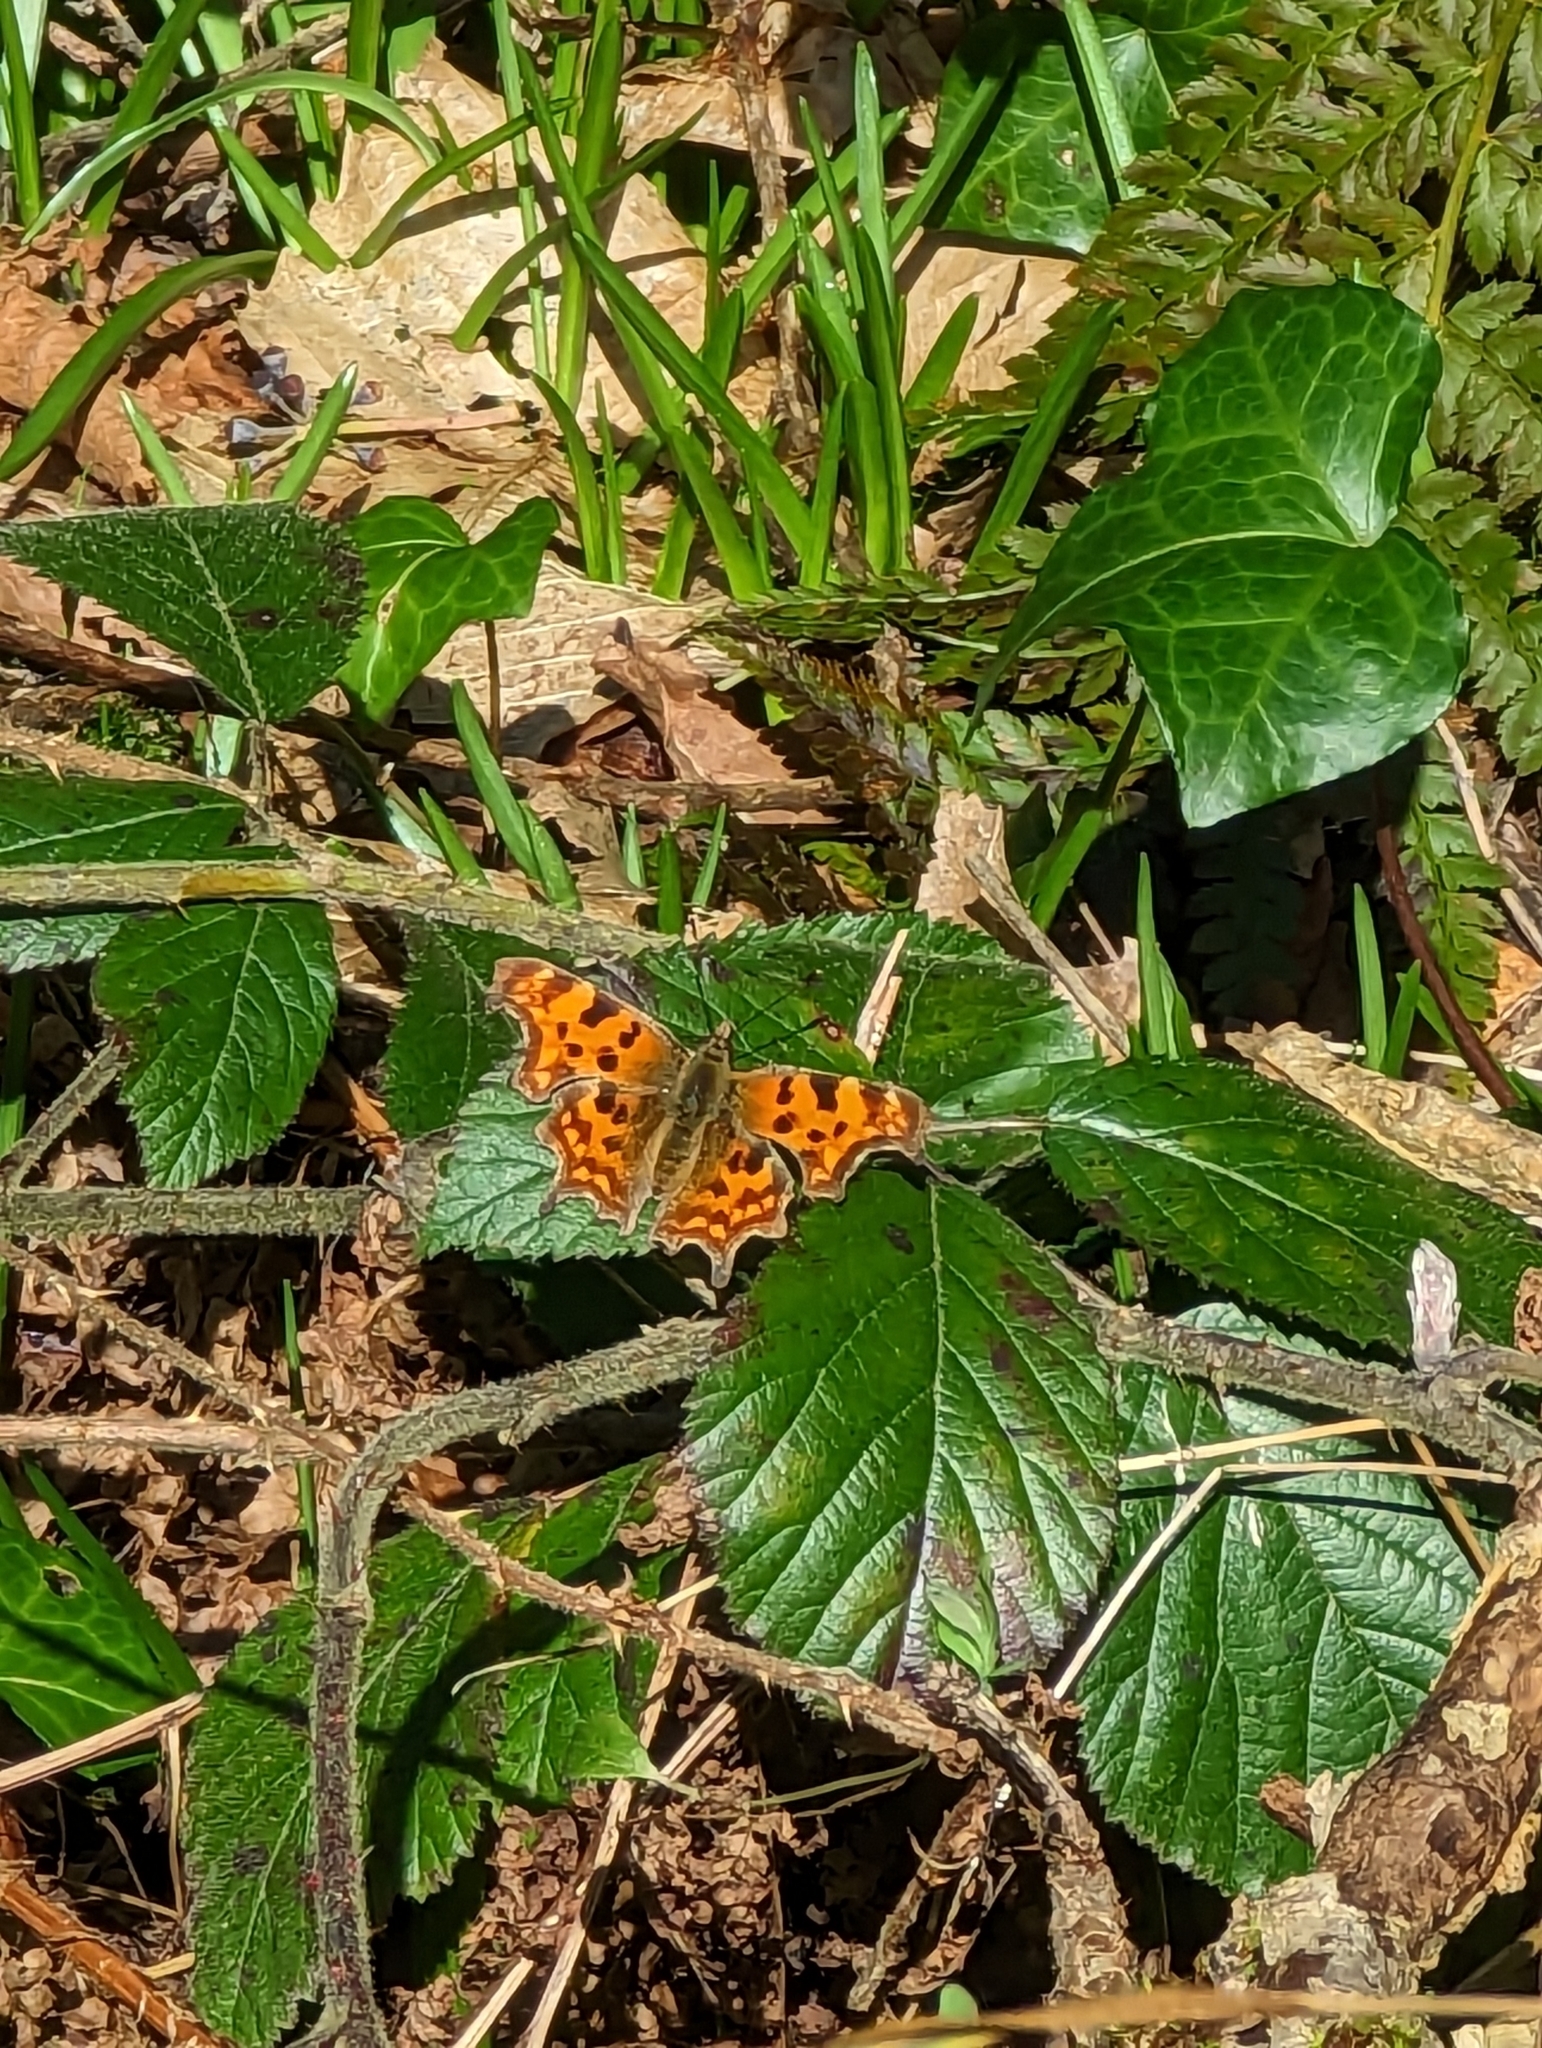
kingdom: Animalia
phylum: Arthropoda
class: Insecta
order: Lepidoptera
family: Nymphalidae
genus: Polygonia
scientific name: Polygonia c-album
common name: Comma
